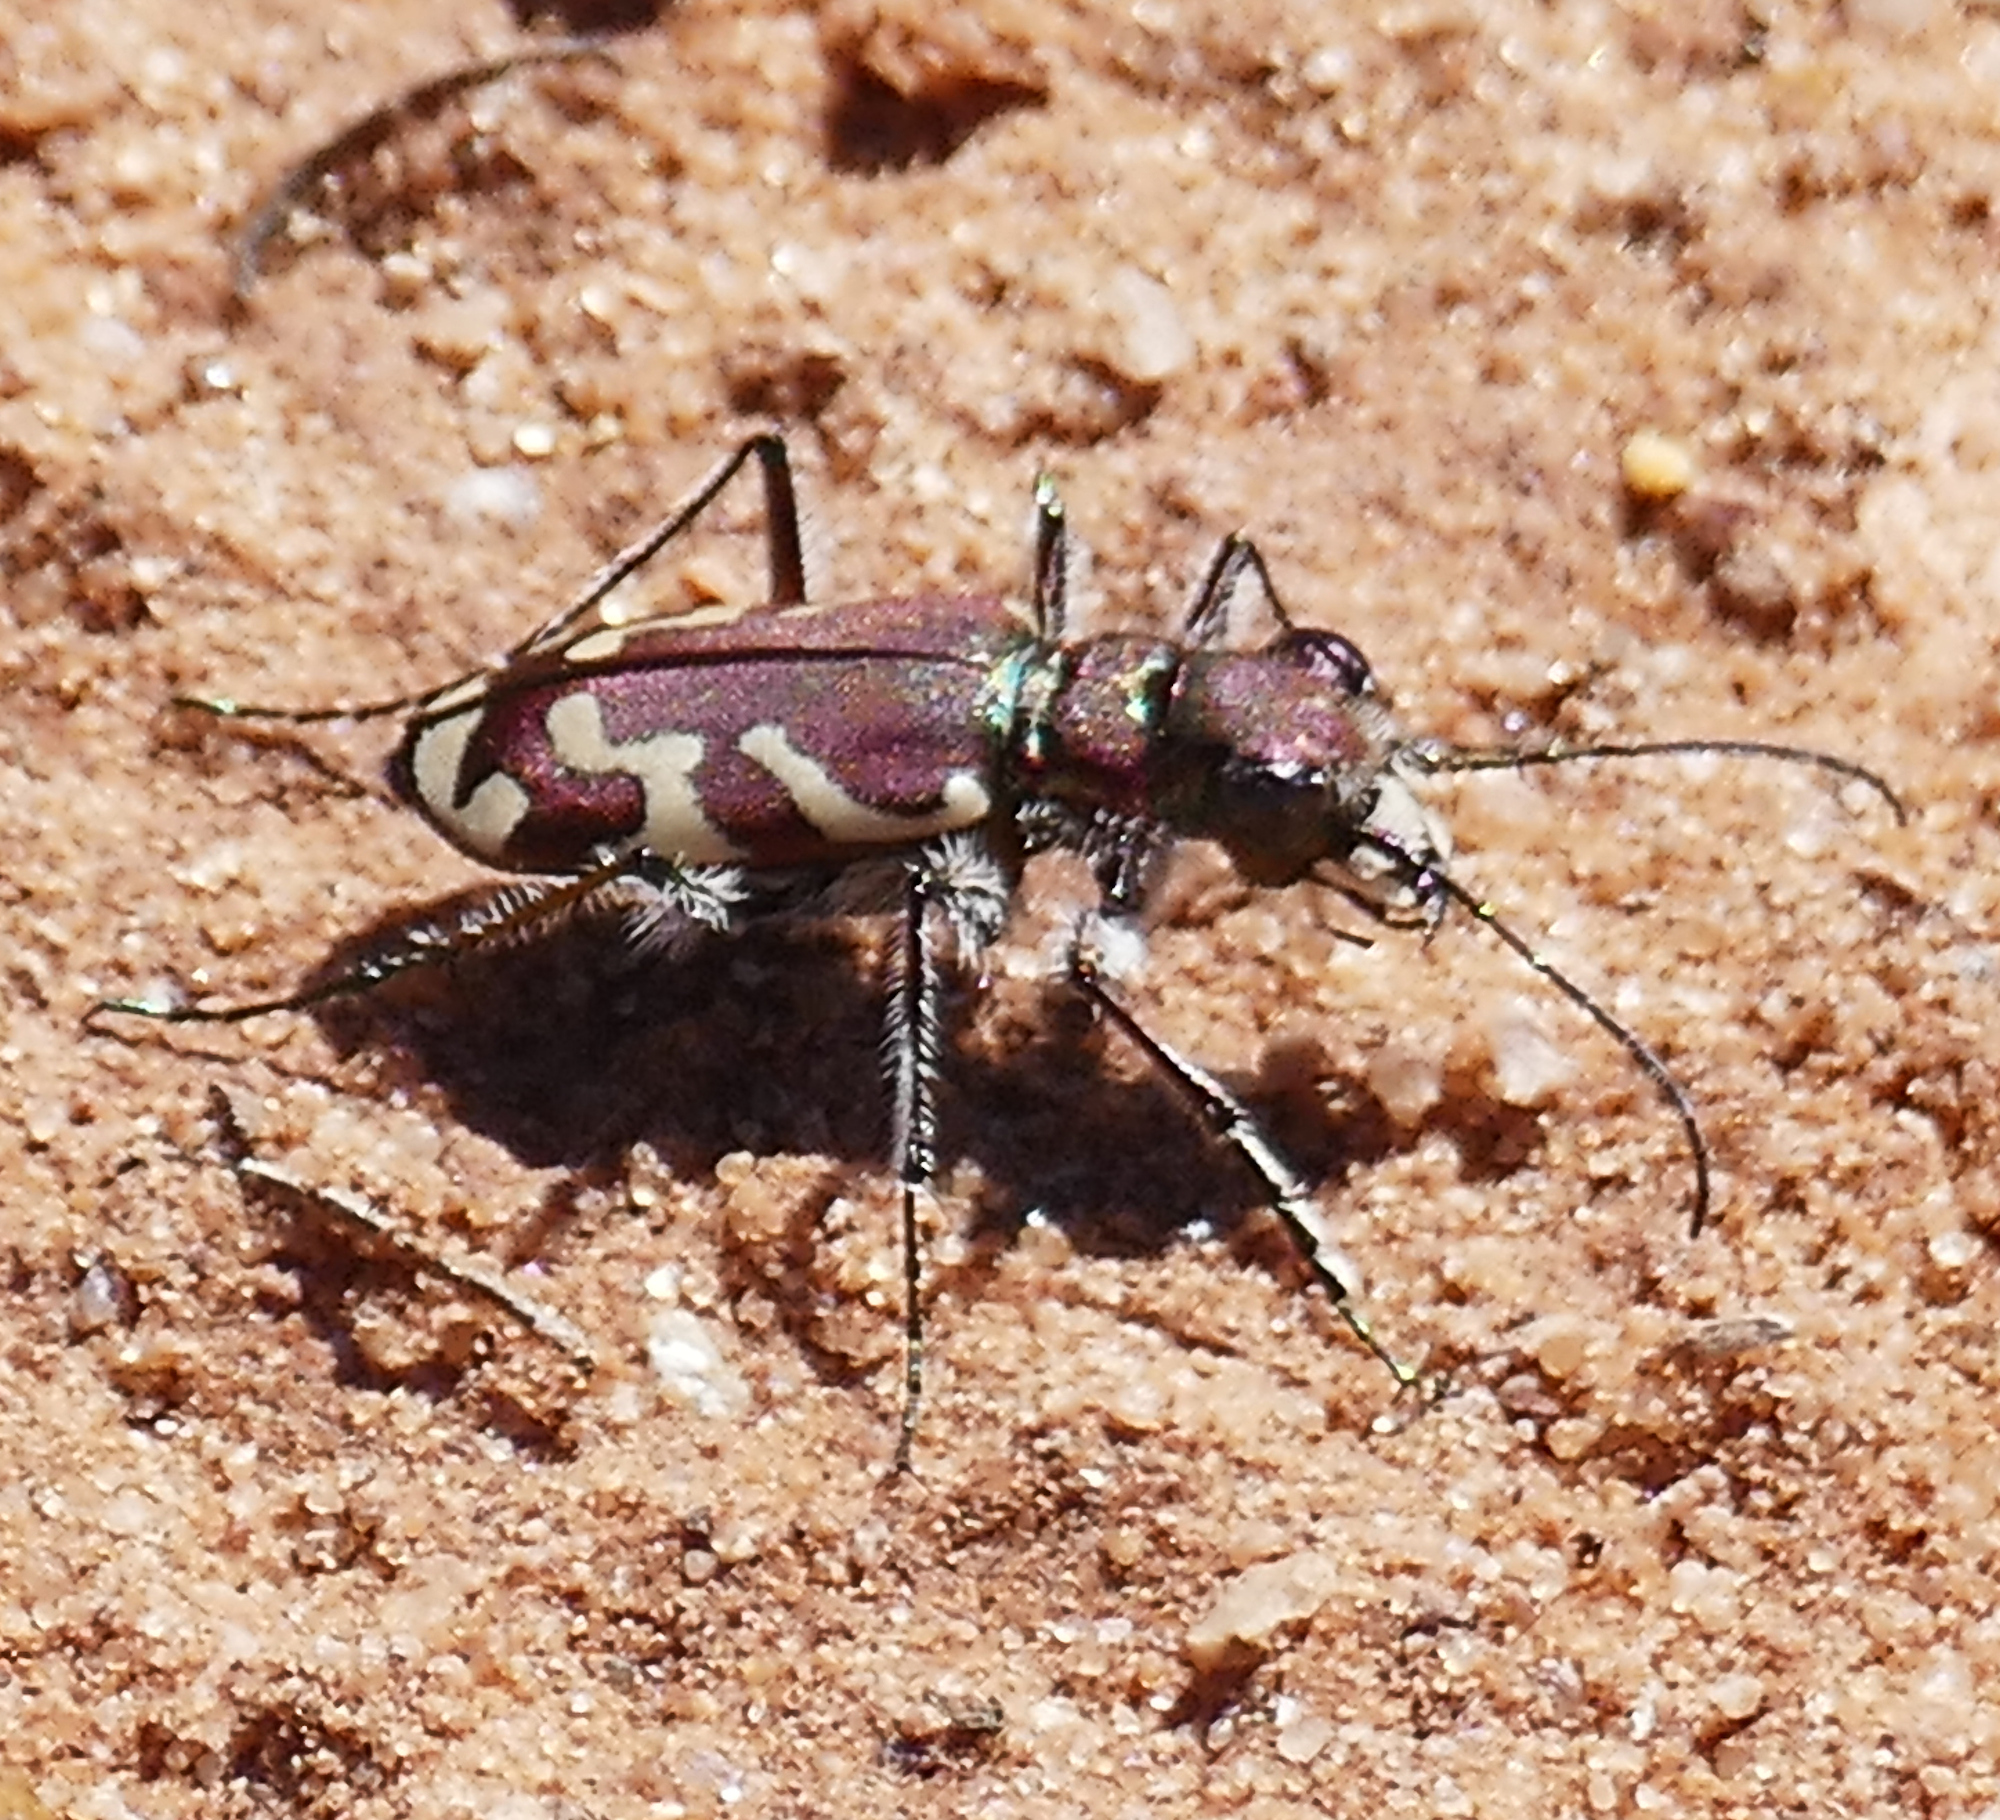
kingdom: Animalia
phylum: Arthropoda
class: Insecta
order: Coleoptera
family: Carabidae
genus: Cicindela
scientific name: Cicindela tranquebarica
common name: Oblique-lined tiger beetle
